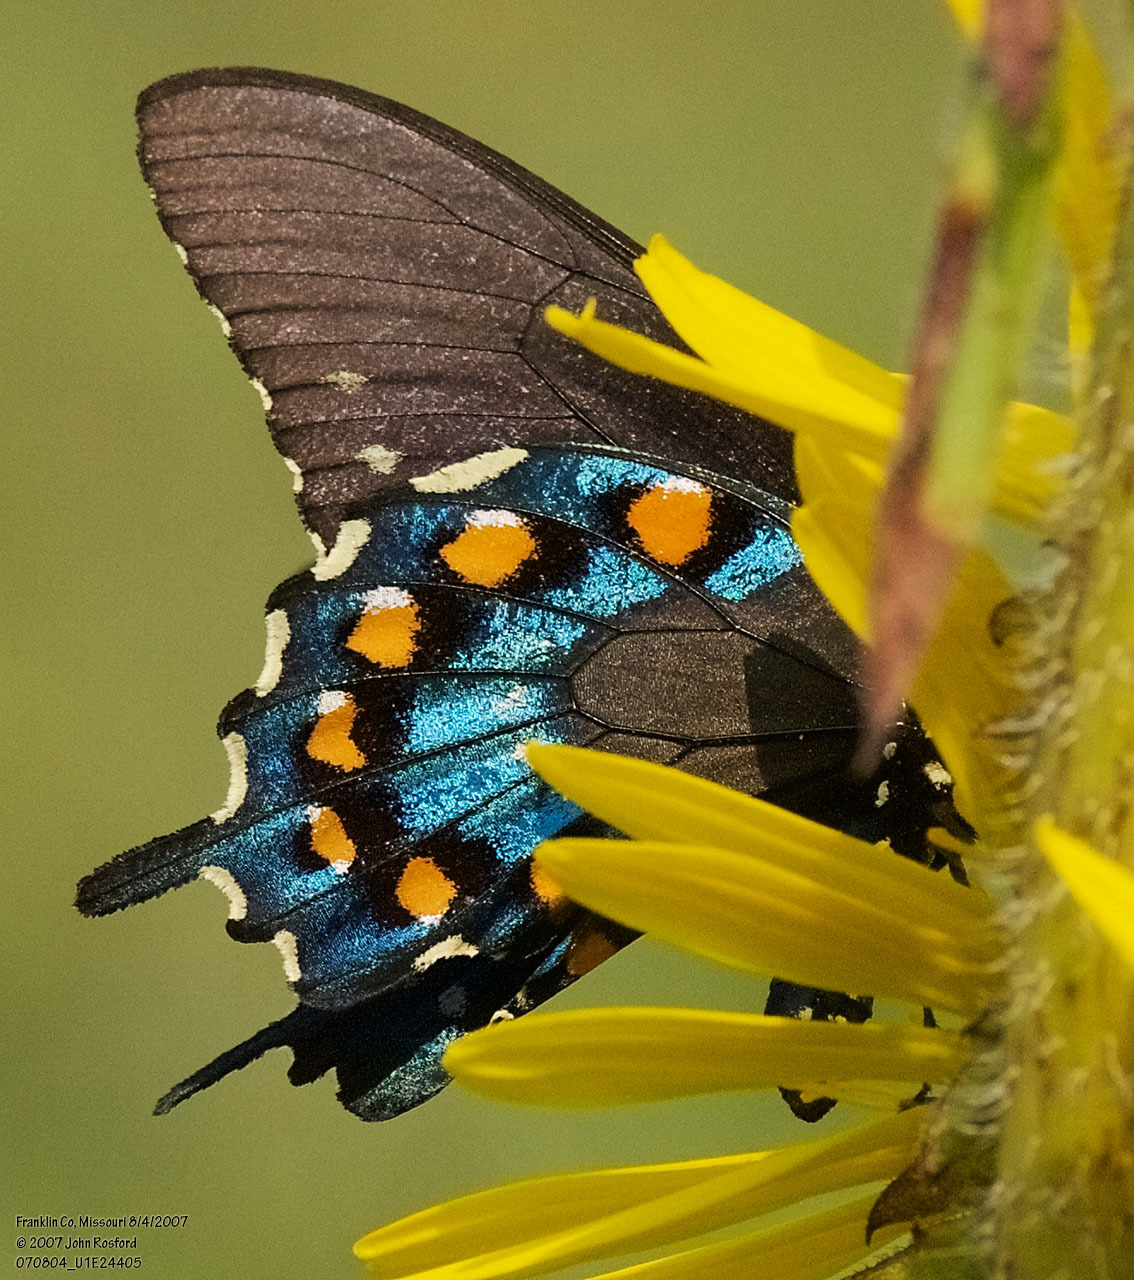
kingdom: Animalia
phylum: Arthropoda
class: Insecta
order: Lepidoptera
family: Papilionidae
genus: Battus
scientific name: Battus philenor
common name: Pipevine swallowtail
